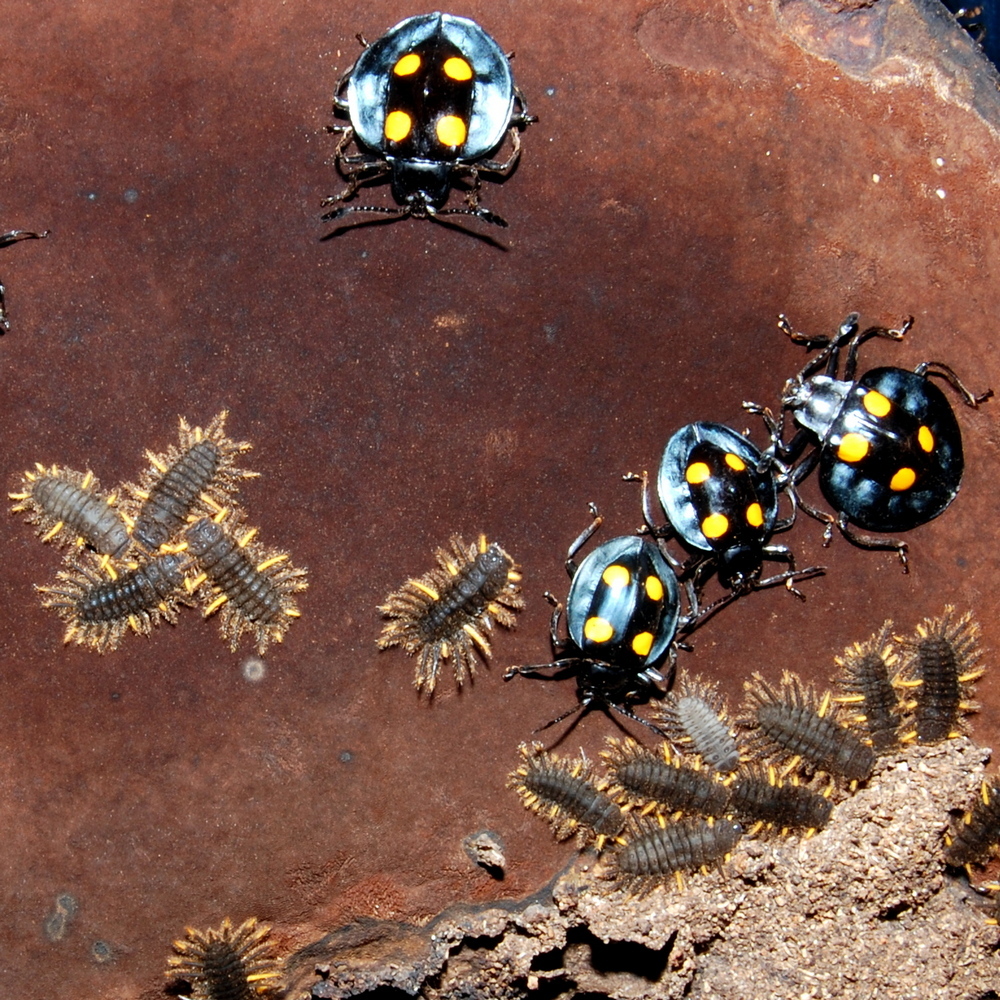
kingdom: Animalia
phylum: Arthropoda
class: Insecta
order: Coleoptera
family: Endomychidae
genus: Eumorphus
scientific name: Eumorphus
